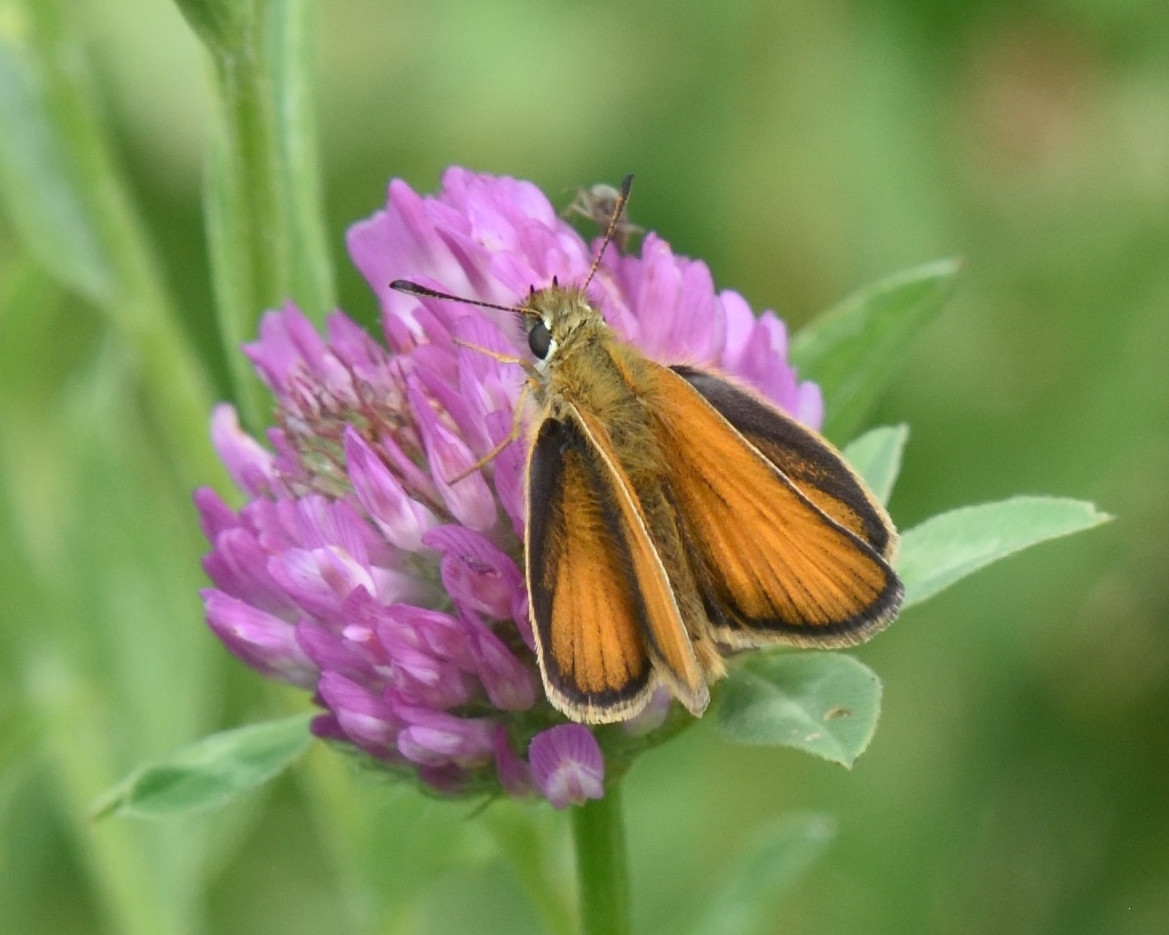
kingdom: Animalia
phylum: Arthropoda
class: Insecta
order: Lepidoptera
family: Hesperiidae
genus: Thymelicus
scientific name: Thymelicus lineola
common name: Essex skipper
